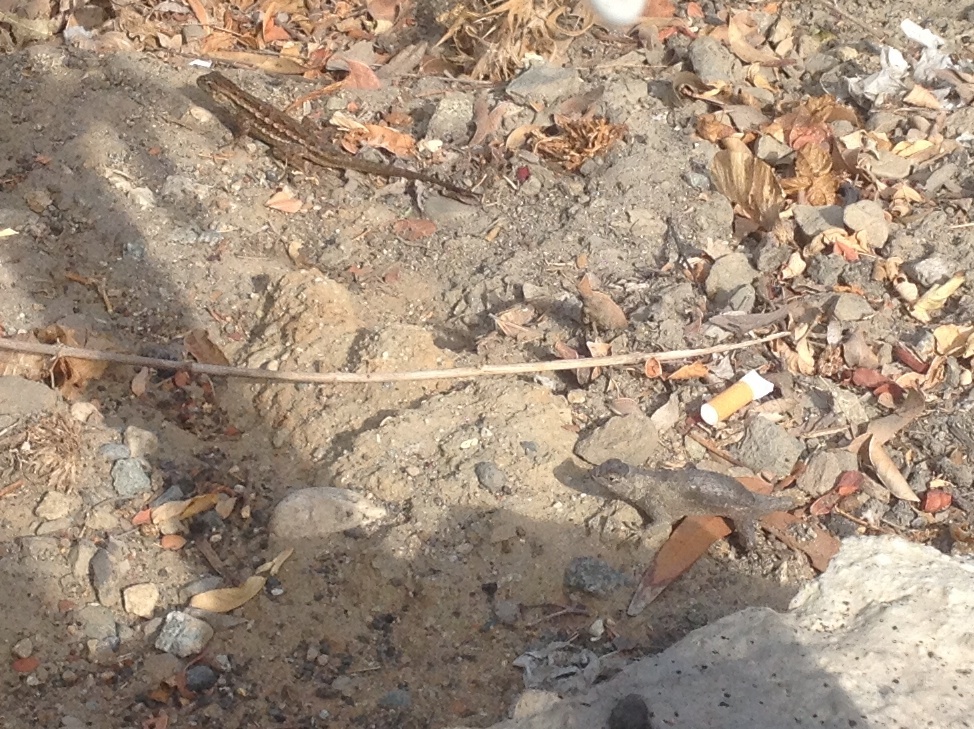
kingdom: Animalia
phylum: Chordata
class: Squamata
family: Phrynosomatidae
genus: Sceloporus
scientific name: Sceloporus occidentalis
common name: Western fence lizard
